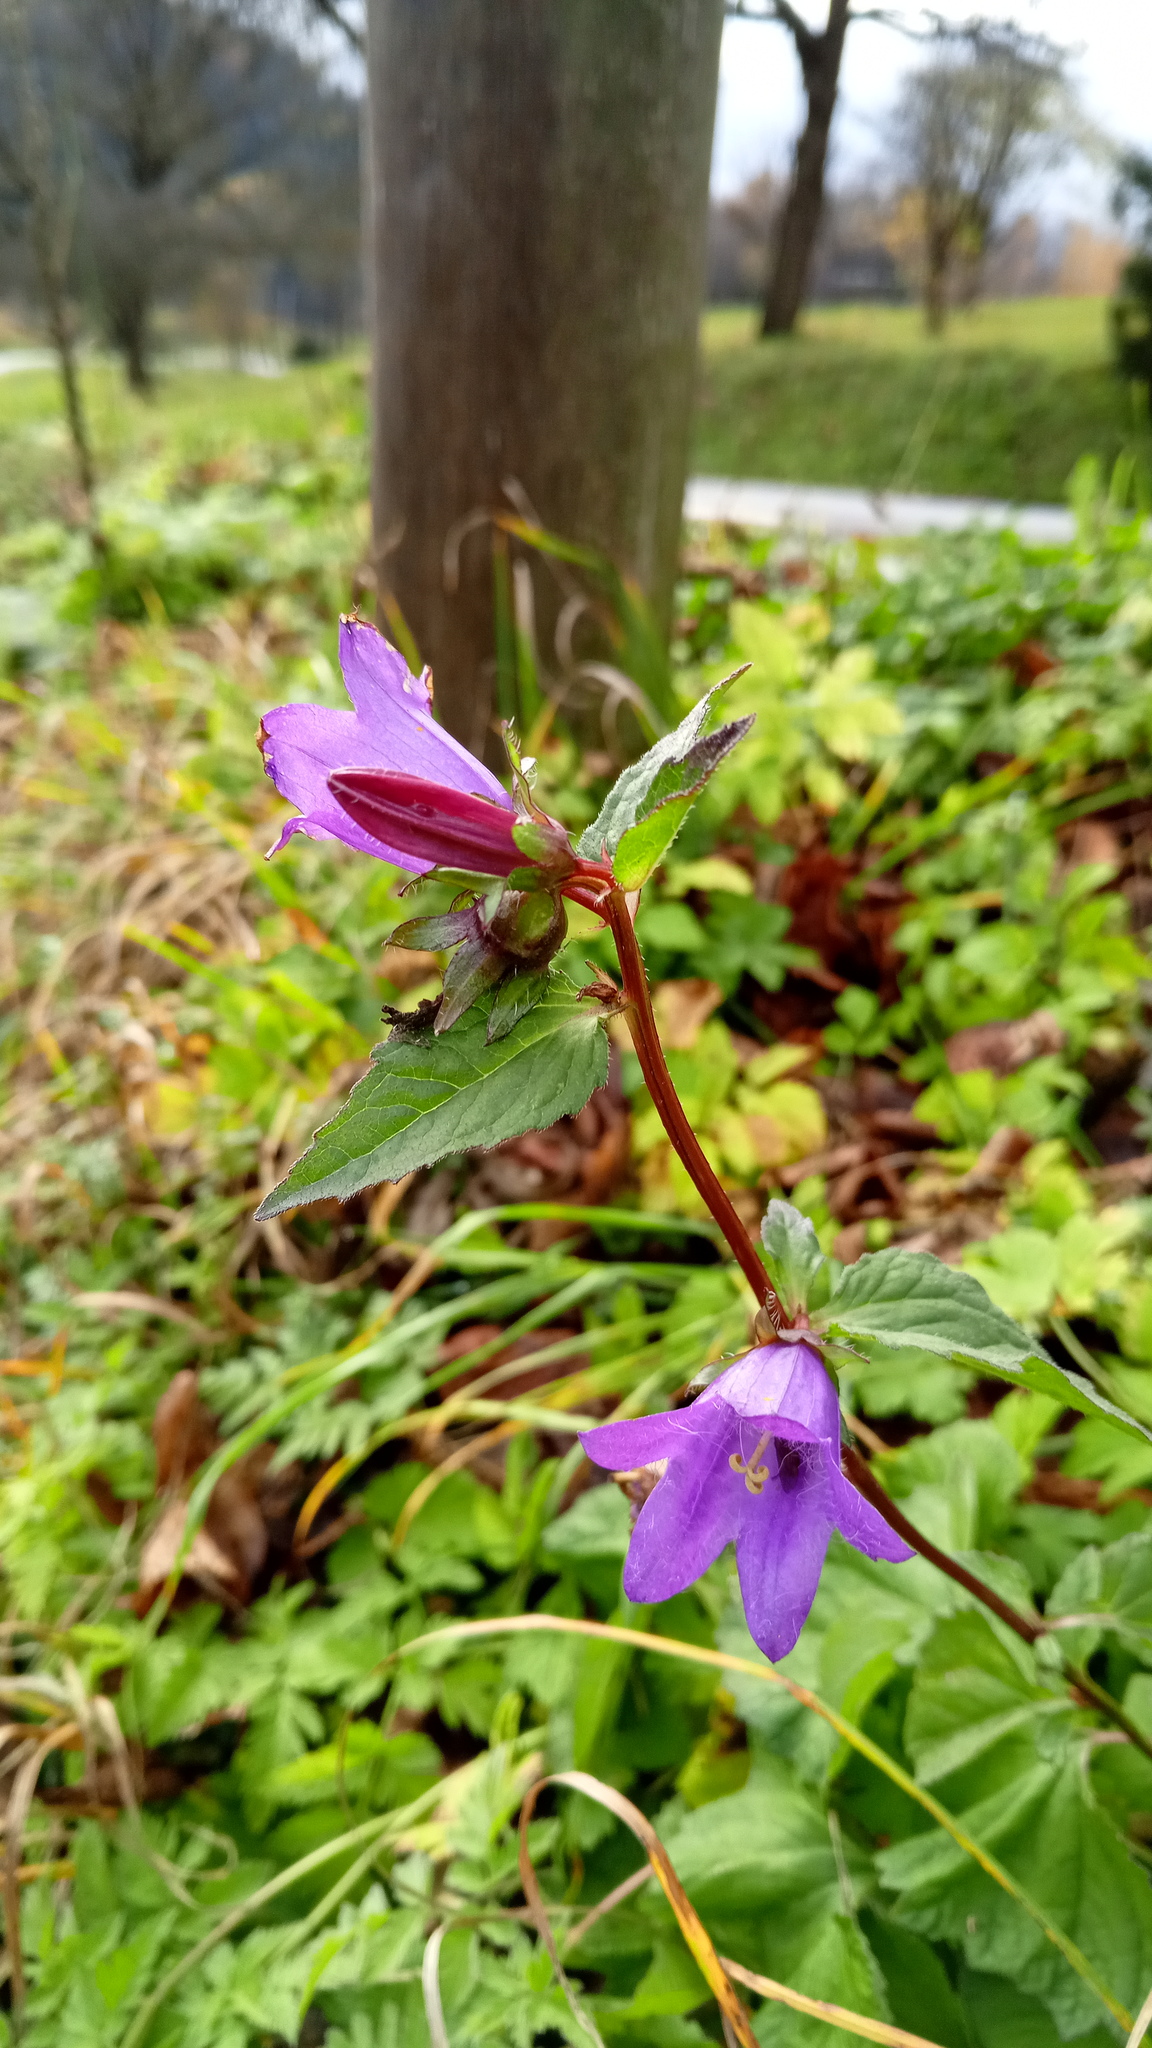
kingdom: Plantae
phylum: Tracheophyta
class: Magnoliopsida
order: Asterales
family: Campanulaceae
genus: Campanula
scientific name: Campanula trachelium
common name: Nettle-leaved bellflower
